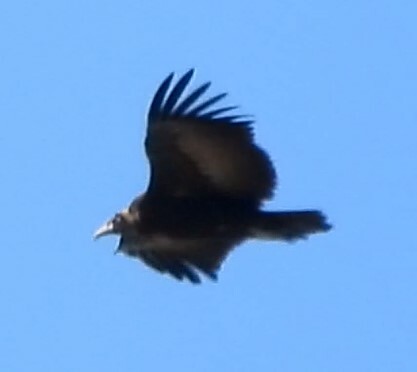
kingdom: Animalia
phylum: Chordata
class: Aves
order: Accipitriformes
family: Accipitridae
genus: Necrosyrtes
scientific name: Necrosyrtes monachus
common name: Hooded vulture
